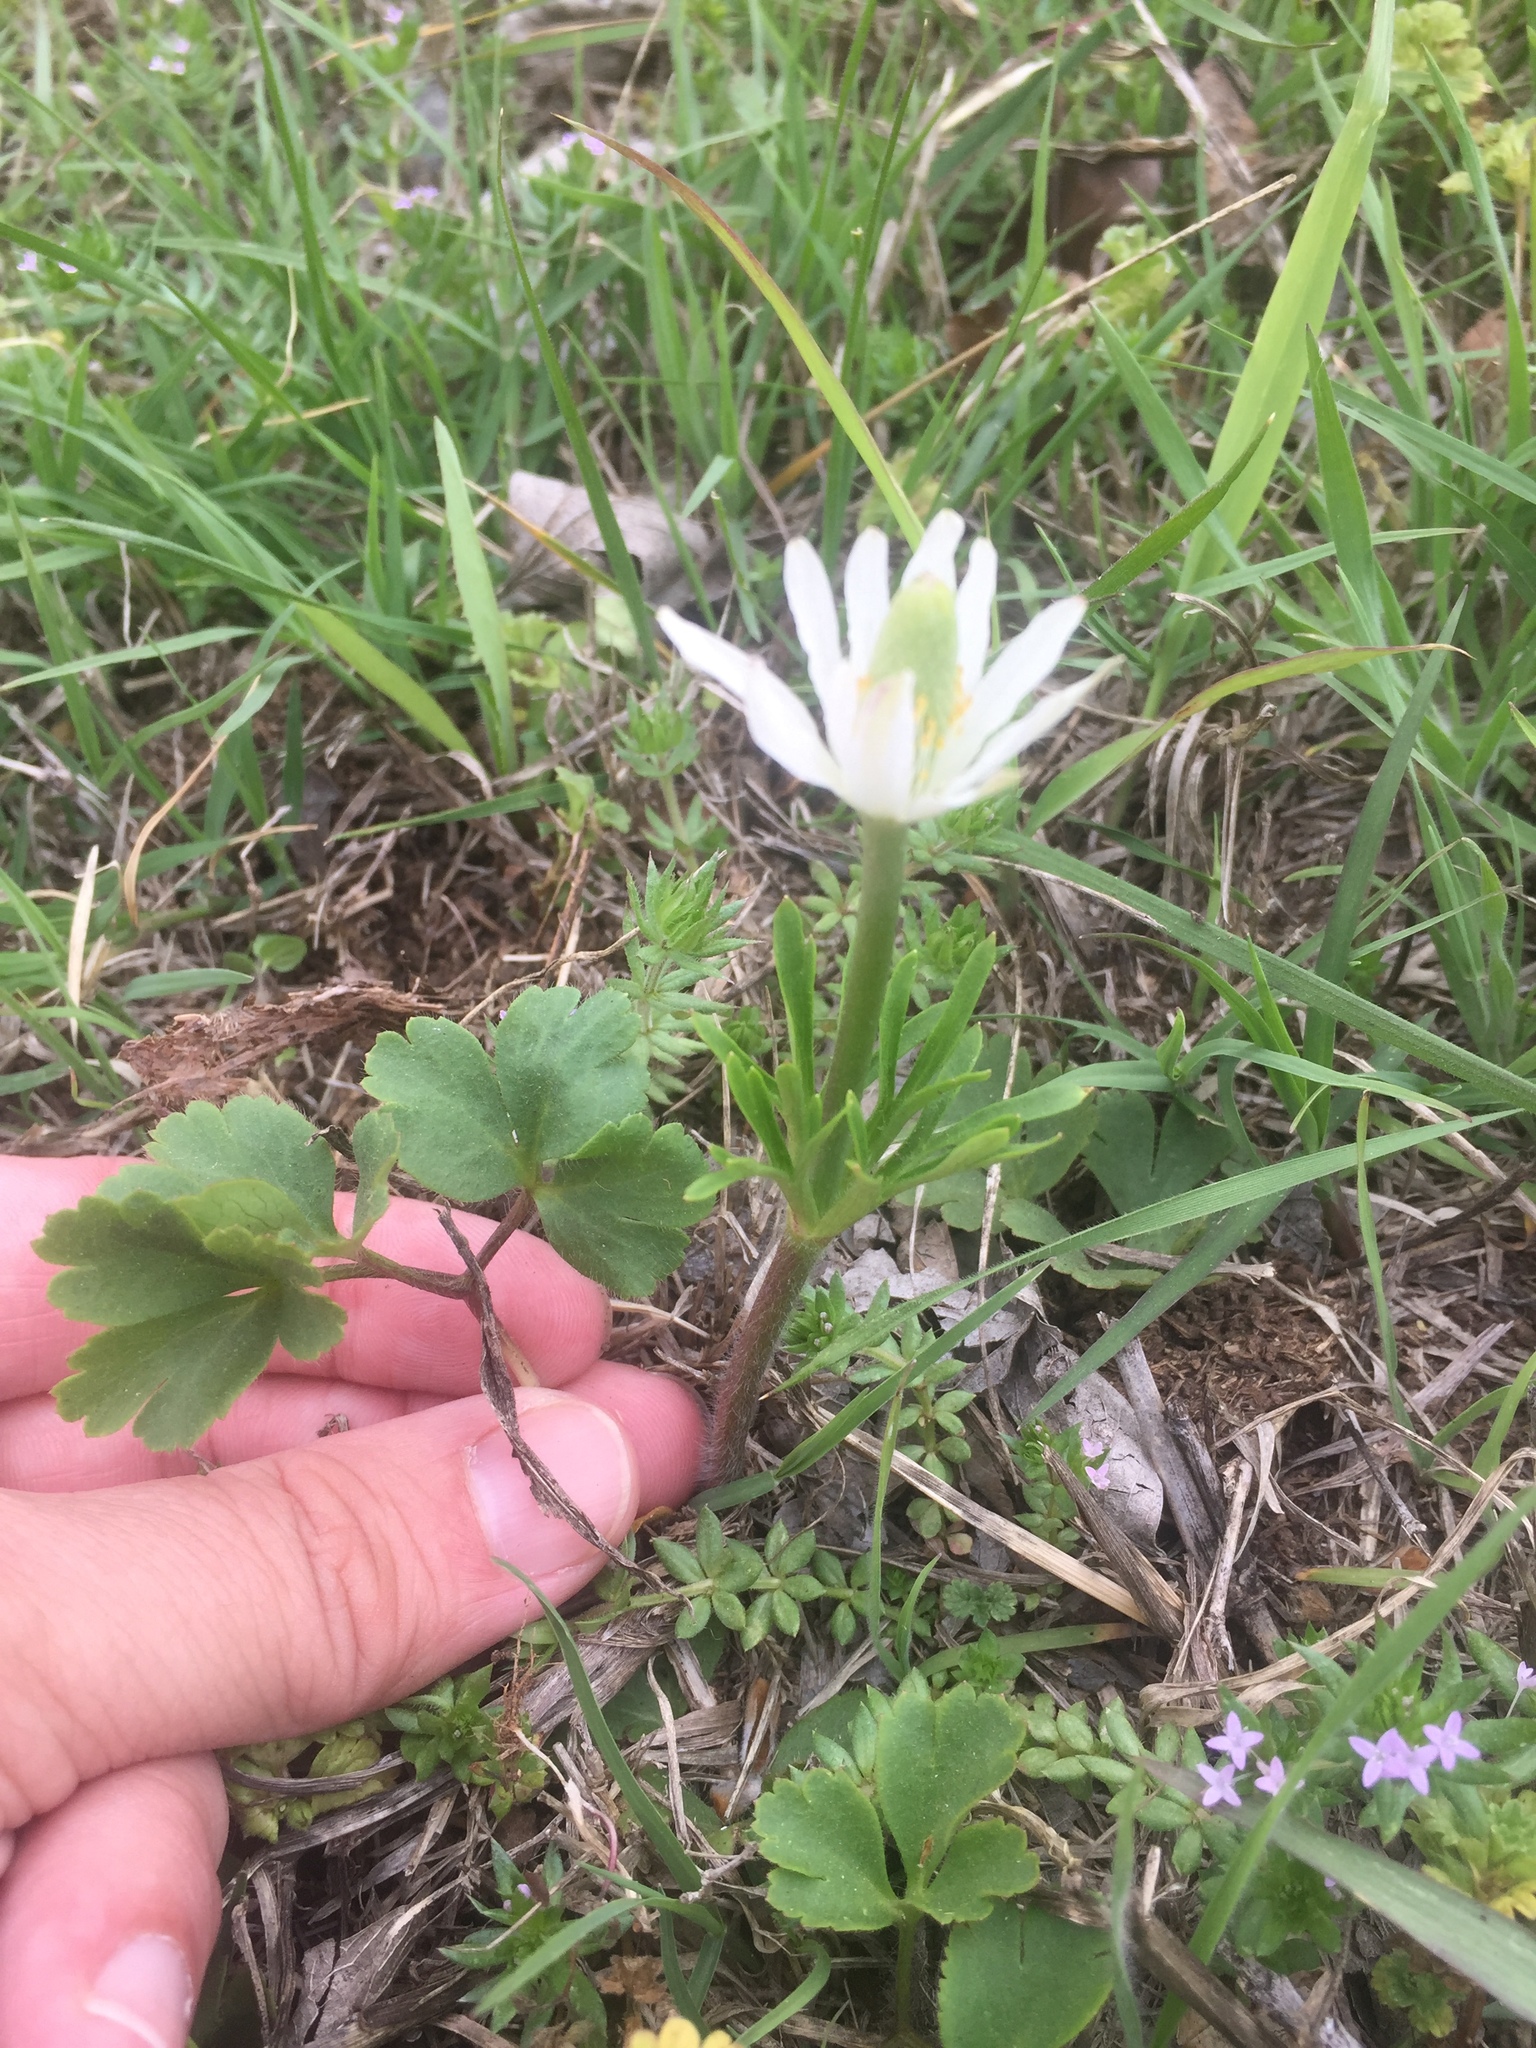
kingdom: Plantae
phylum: Tracheophyta
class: Magnoliopsida
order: Ranunculales
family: Ranunculaceae
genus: Anemone
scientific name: Anemone berlandieri
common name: Ten-petal anemone
